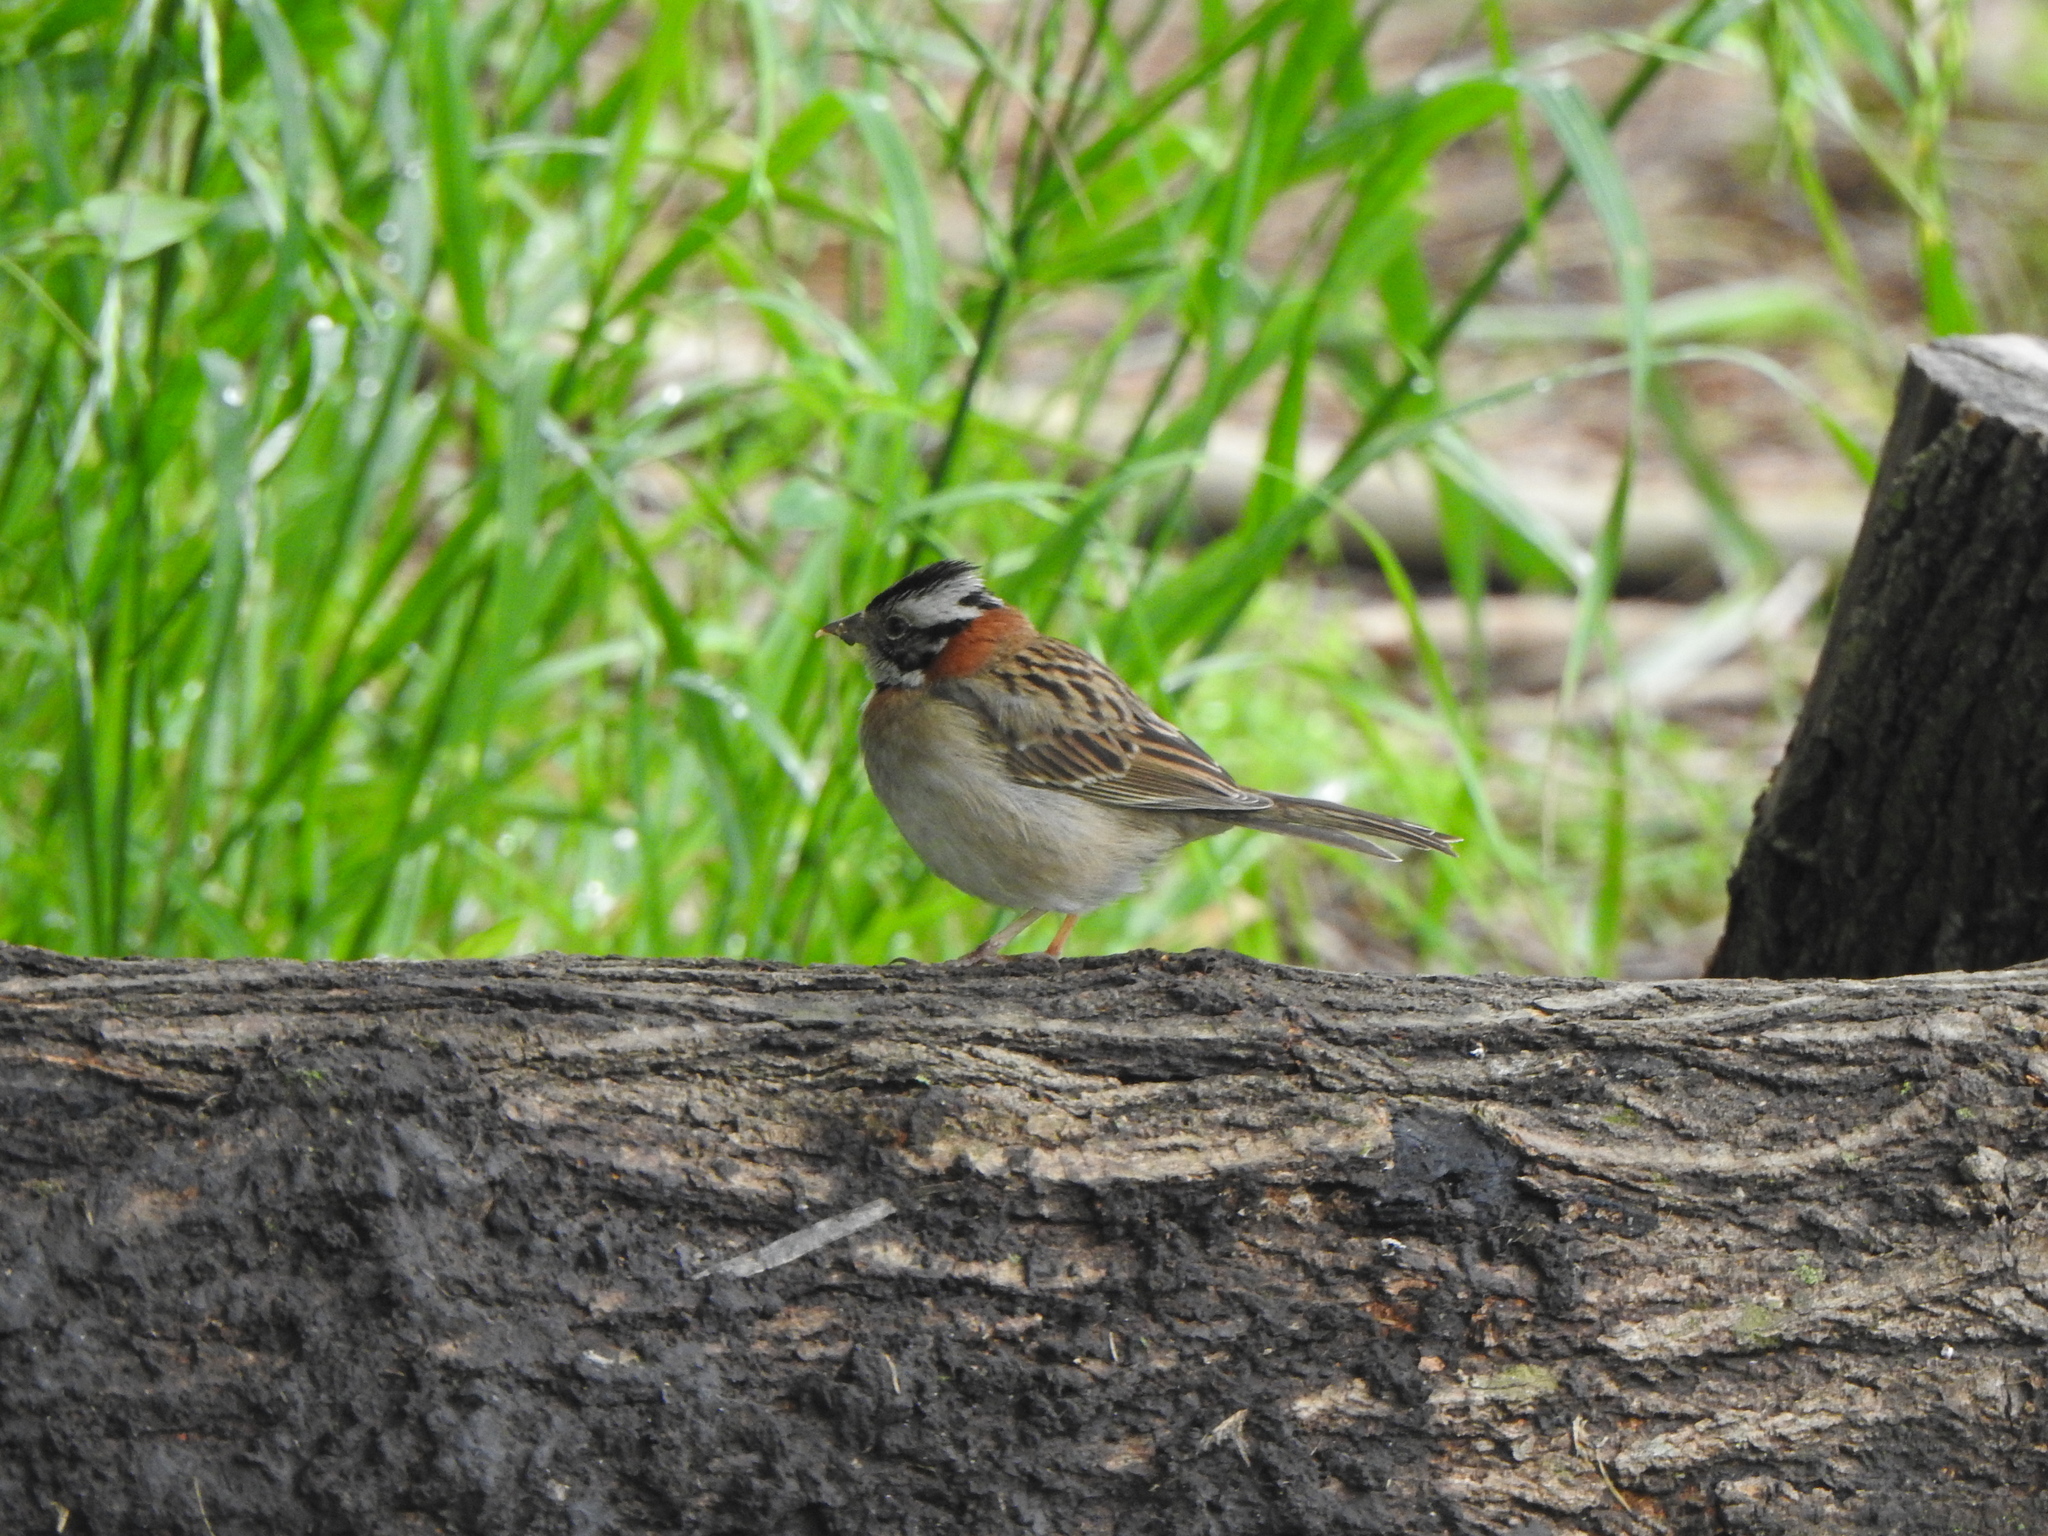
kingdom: Animalia
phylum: Chordata
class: Aves
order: Passeriformes
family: Passerellidae
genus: Zonotrichia
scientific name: Zonotrichia capensis
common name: Rufous-collared sparrow
